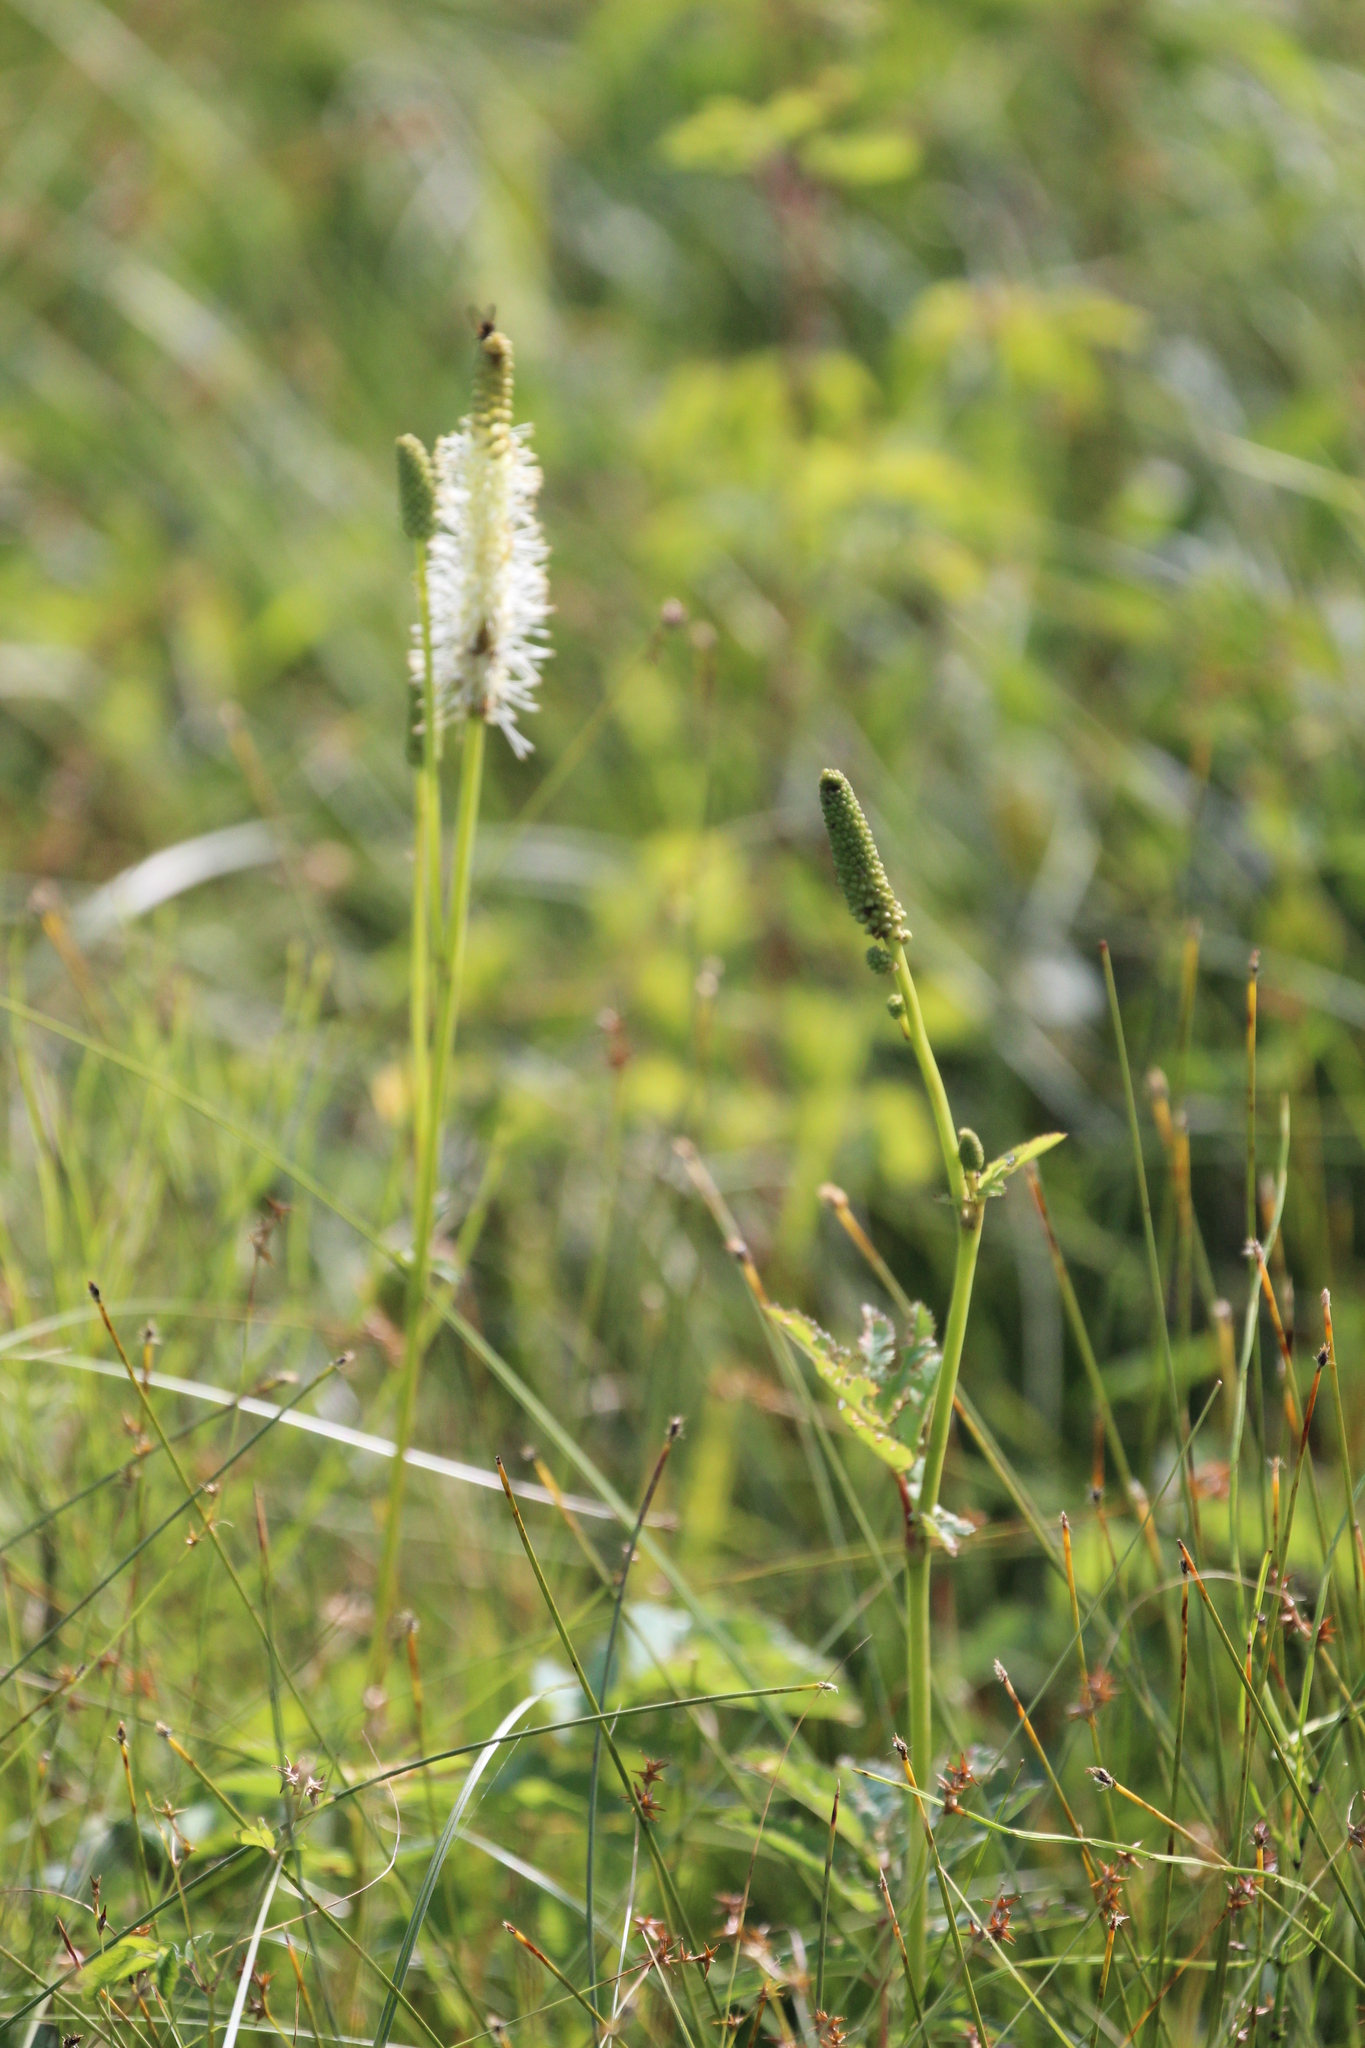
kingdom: Plantae
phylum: Tracheophyta
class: Magnoliopsida
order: Rosales
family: Rosaceae
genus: Sanguisorba
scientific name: Sanguisorba canadensis
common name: White burnet
